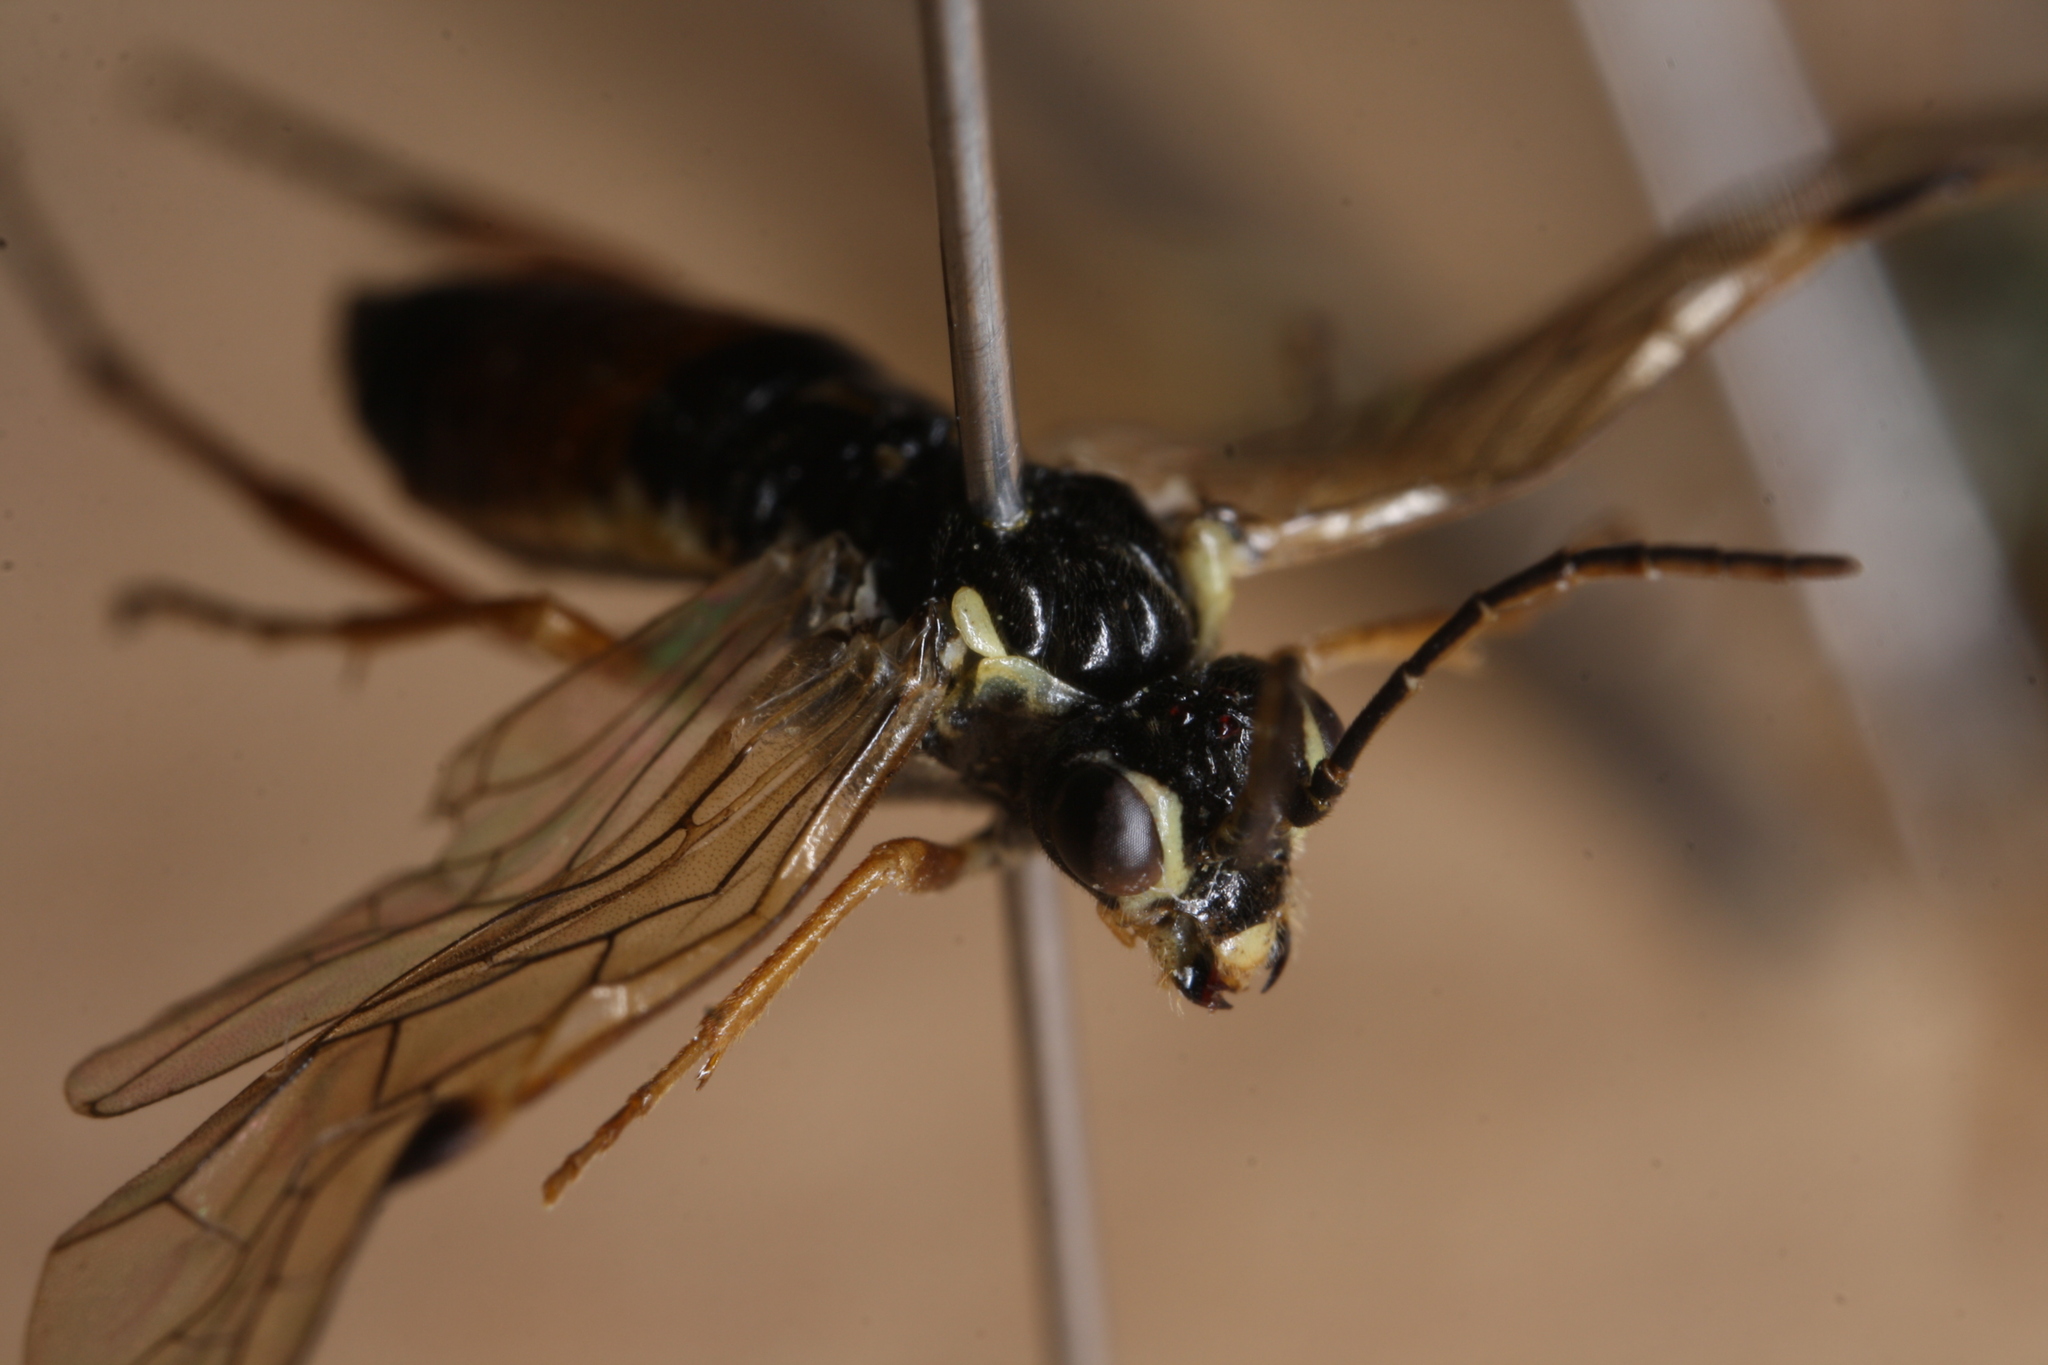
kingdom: Animalia
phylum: Arthropoda
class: Insecta
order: Hymenoptera
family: Tenthredinidae
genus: Aglaostigma
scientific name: Aglaostigma fulvipes
